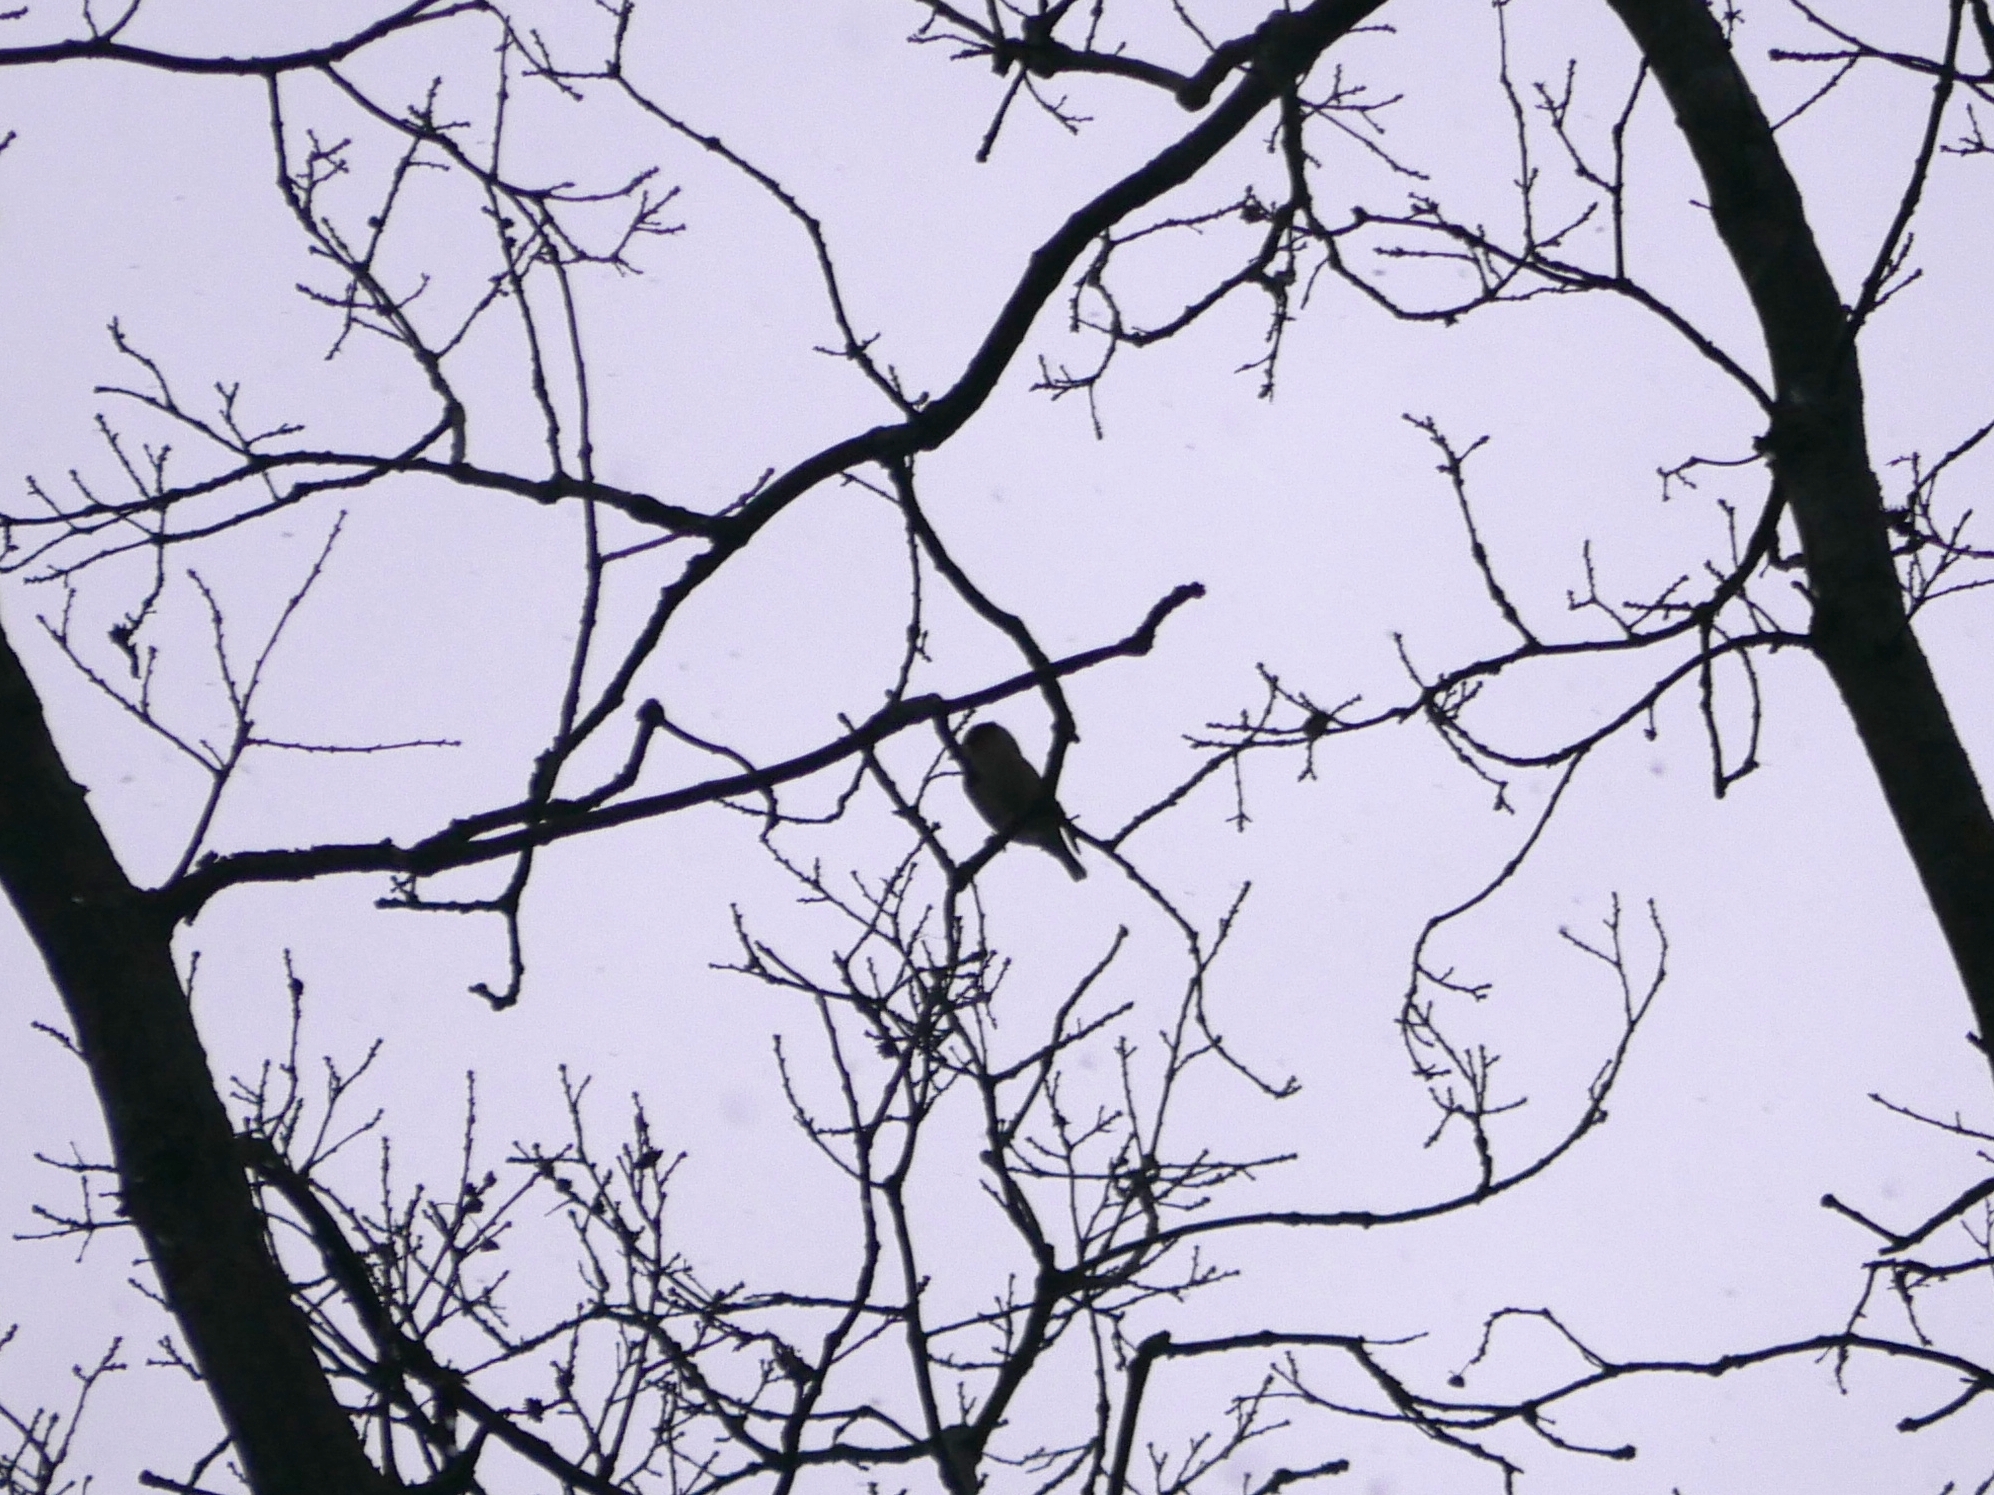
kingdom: Animalia
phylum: Chordata
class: Aves
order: Passeriformes
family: Fringillidae
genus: Coccothraustes
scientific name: Coccothraustes coccothraustes
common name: Hawfinch
